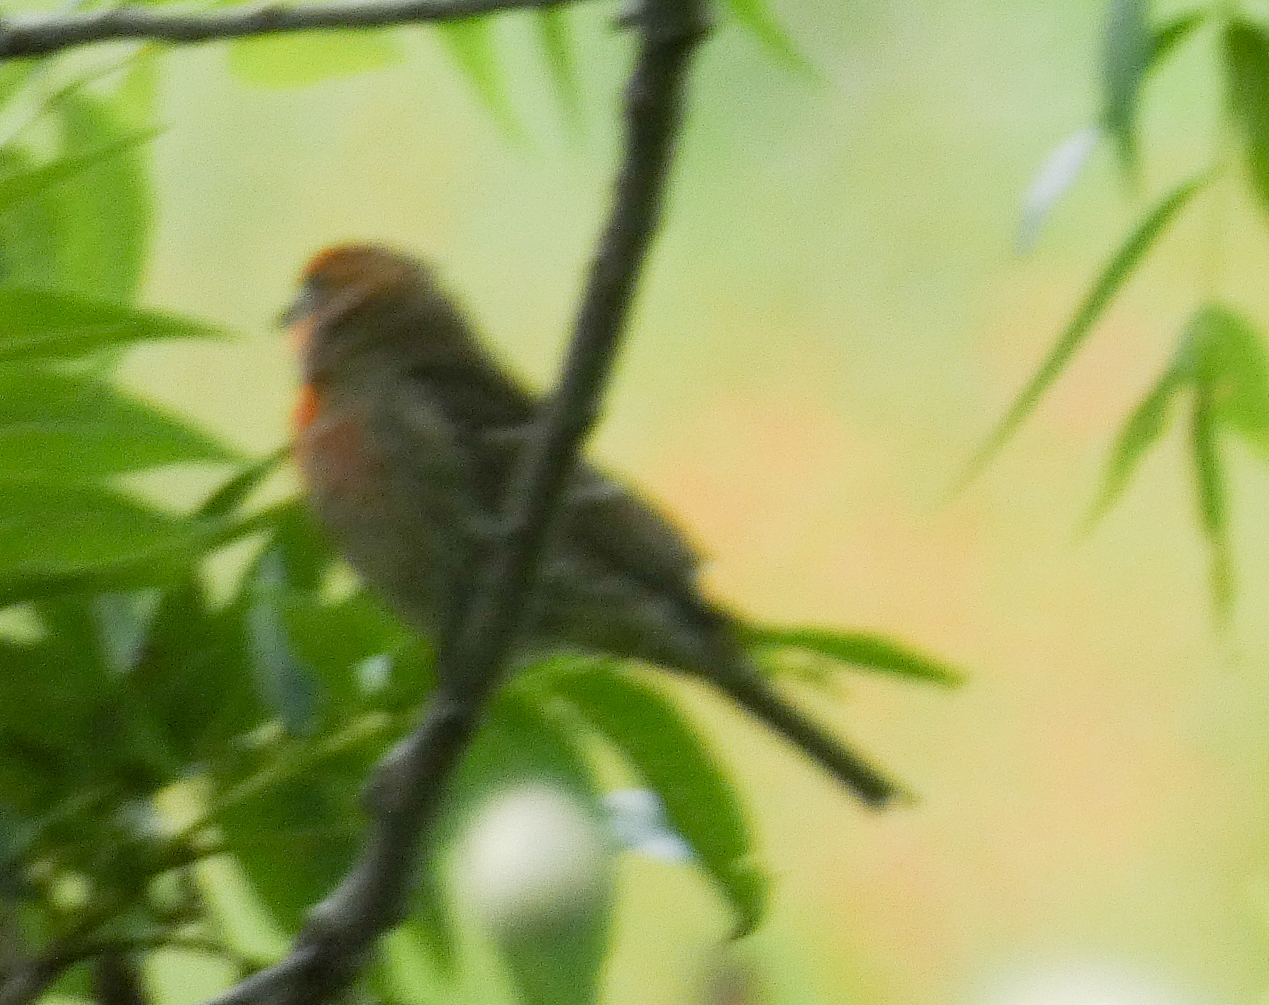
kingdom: Animalia
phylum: Chordata
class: Aves
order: Passeriformes
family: Fringillidae
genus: Haemorhous
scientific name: Haemorhous mexicanus
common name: House finch
